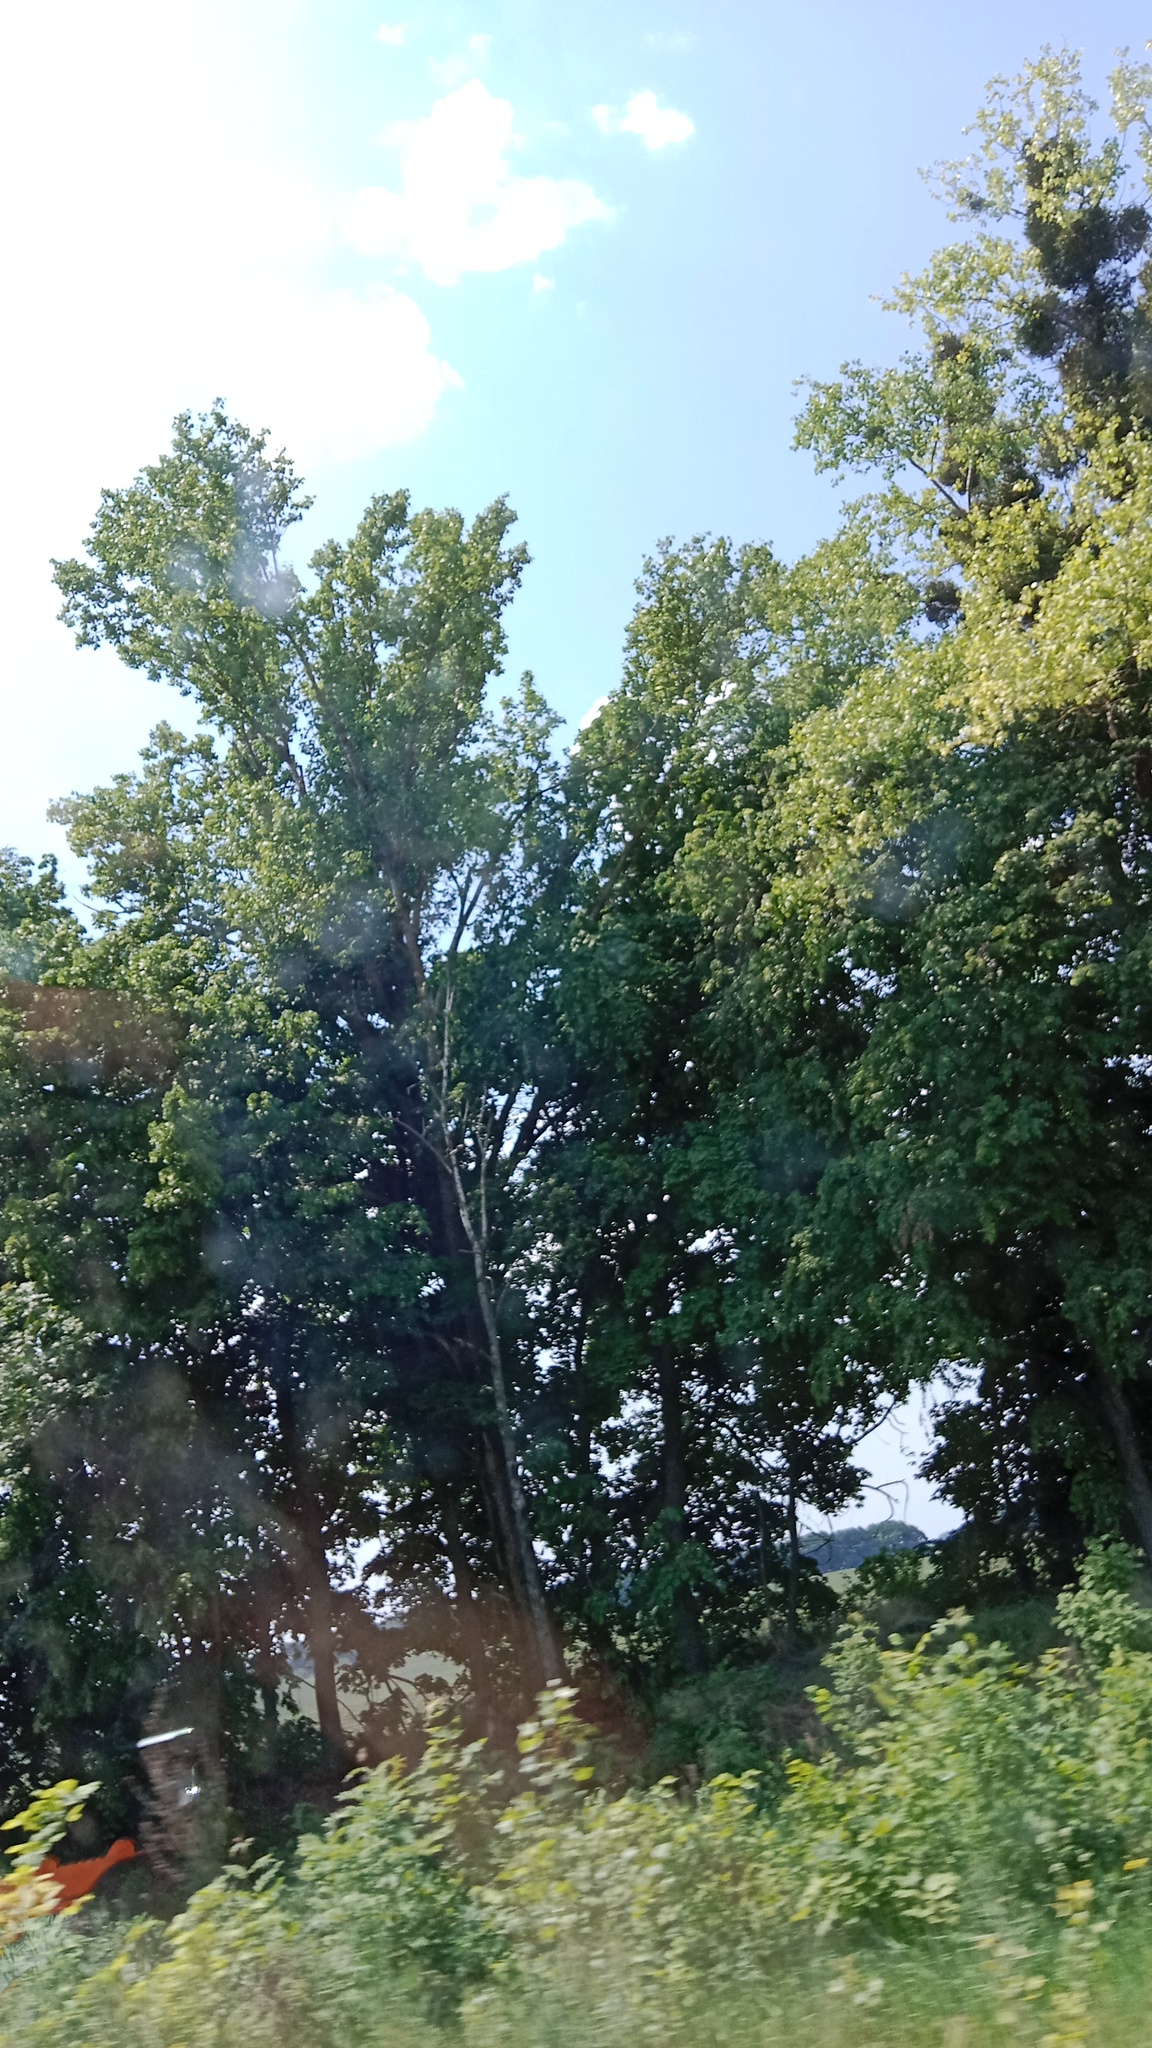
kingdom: Plantae
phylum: Tracheophyta
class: Magnoliopsida
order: Santalales
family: Viscaceae
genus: Viscum
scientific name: Viscum album
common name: Mistletoe
